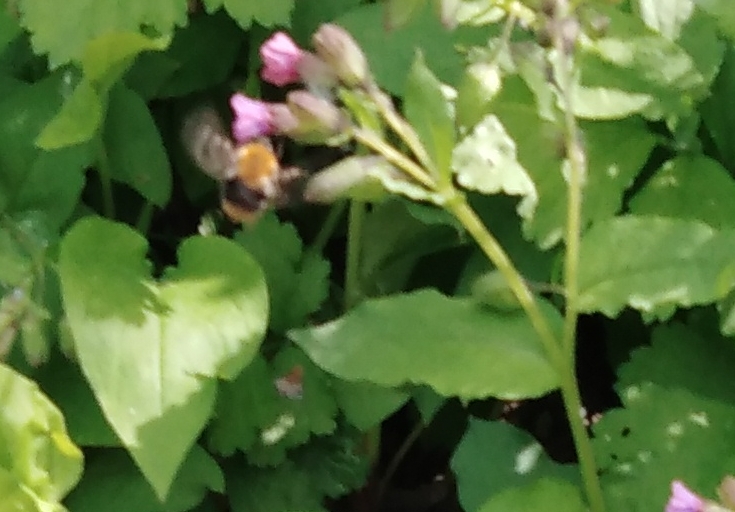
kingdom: Animalia
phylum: Arthropoda
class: Insecta
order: Hymenoptera
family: Apidae
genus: Bombus
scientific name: Bombus pascuorum
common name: Common carder bee
